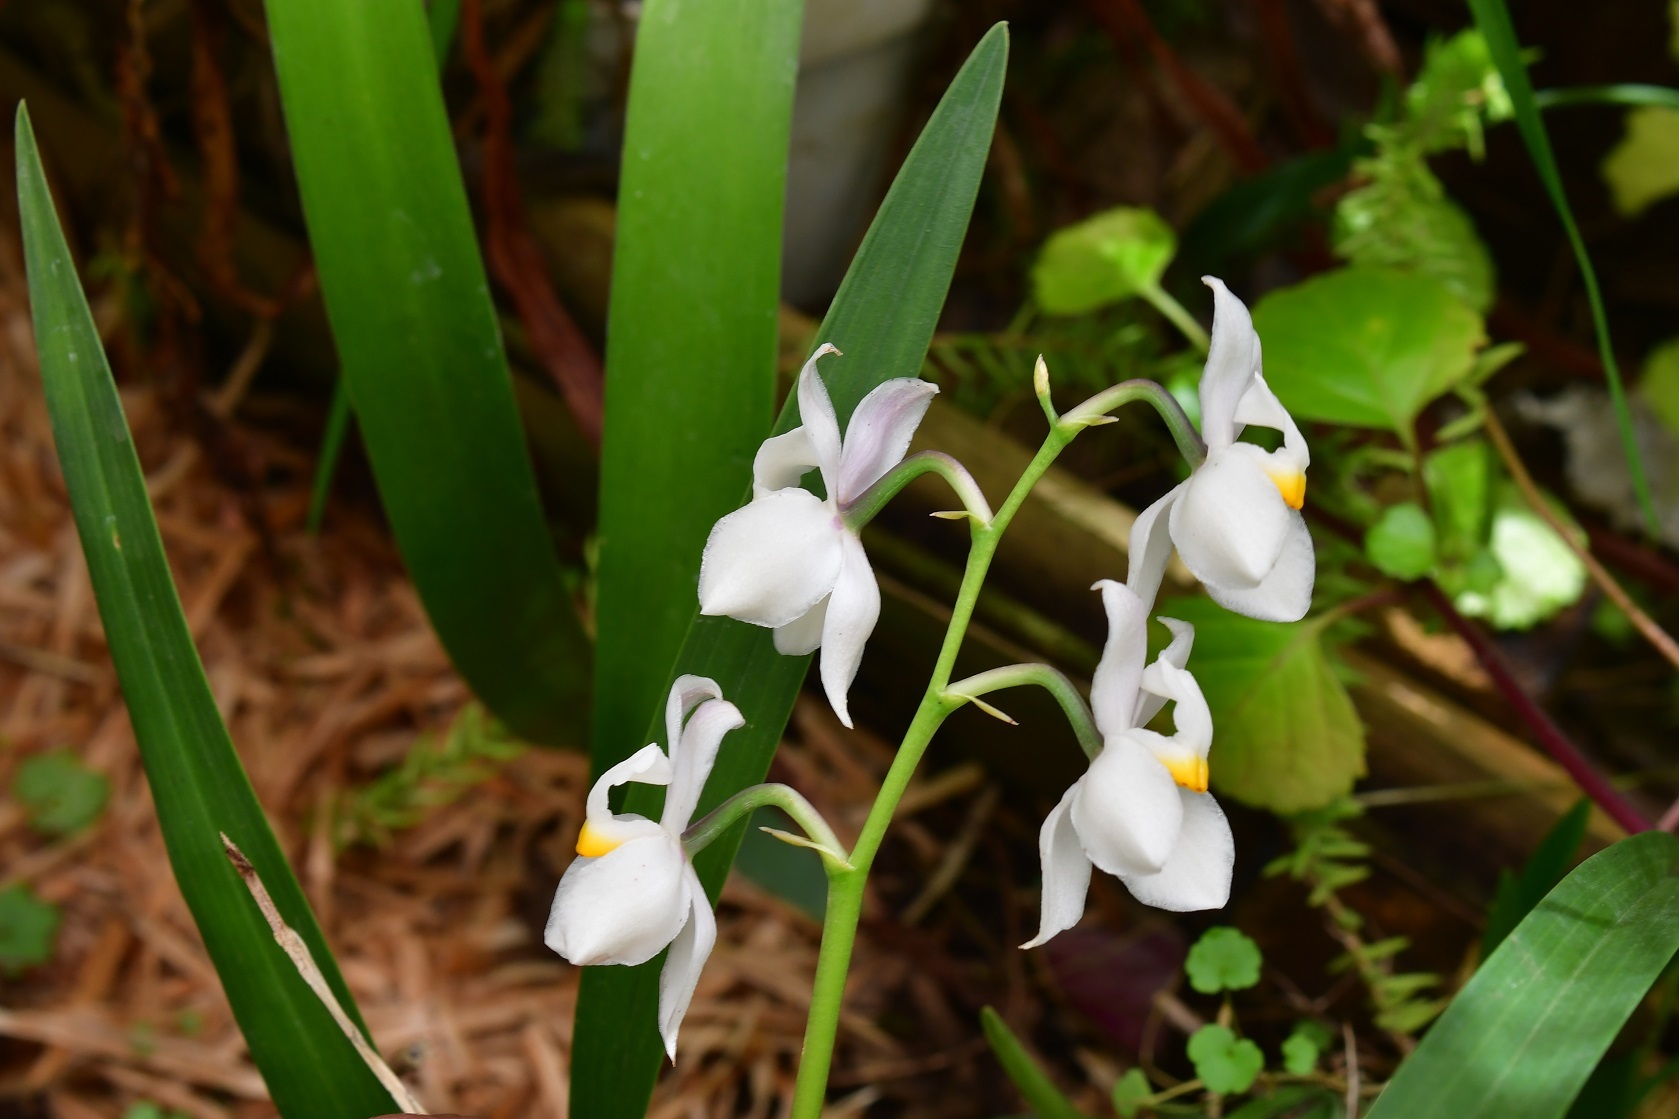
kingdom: Plantae
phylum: Tracheophyta
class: Liliopsida
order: Asparagales
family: Orchidaceae
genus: Cuitlauzina
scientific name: Cuitlauzina pulchella
